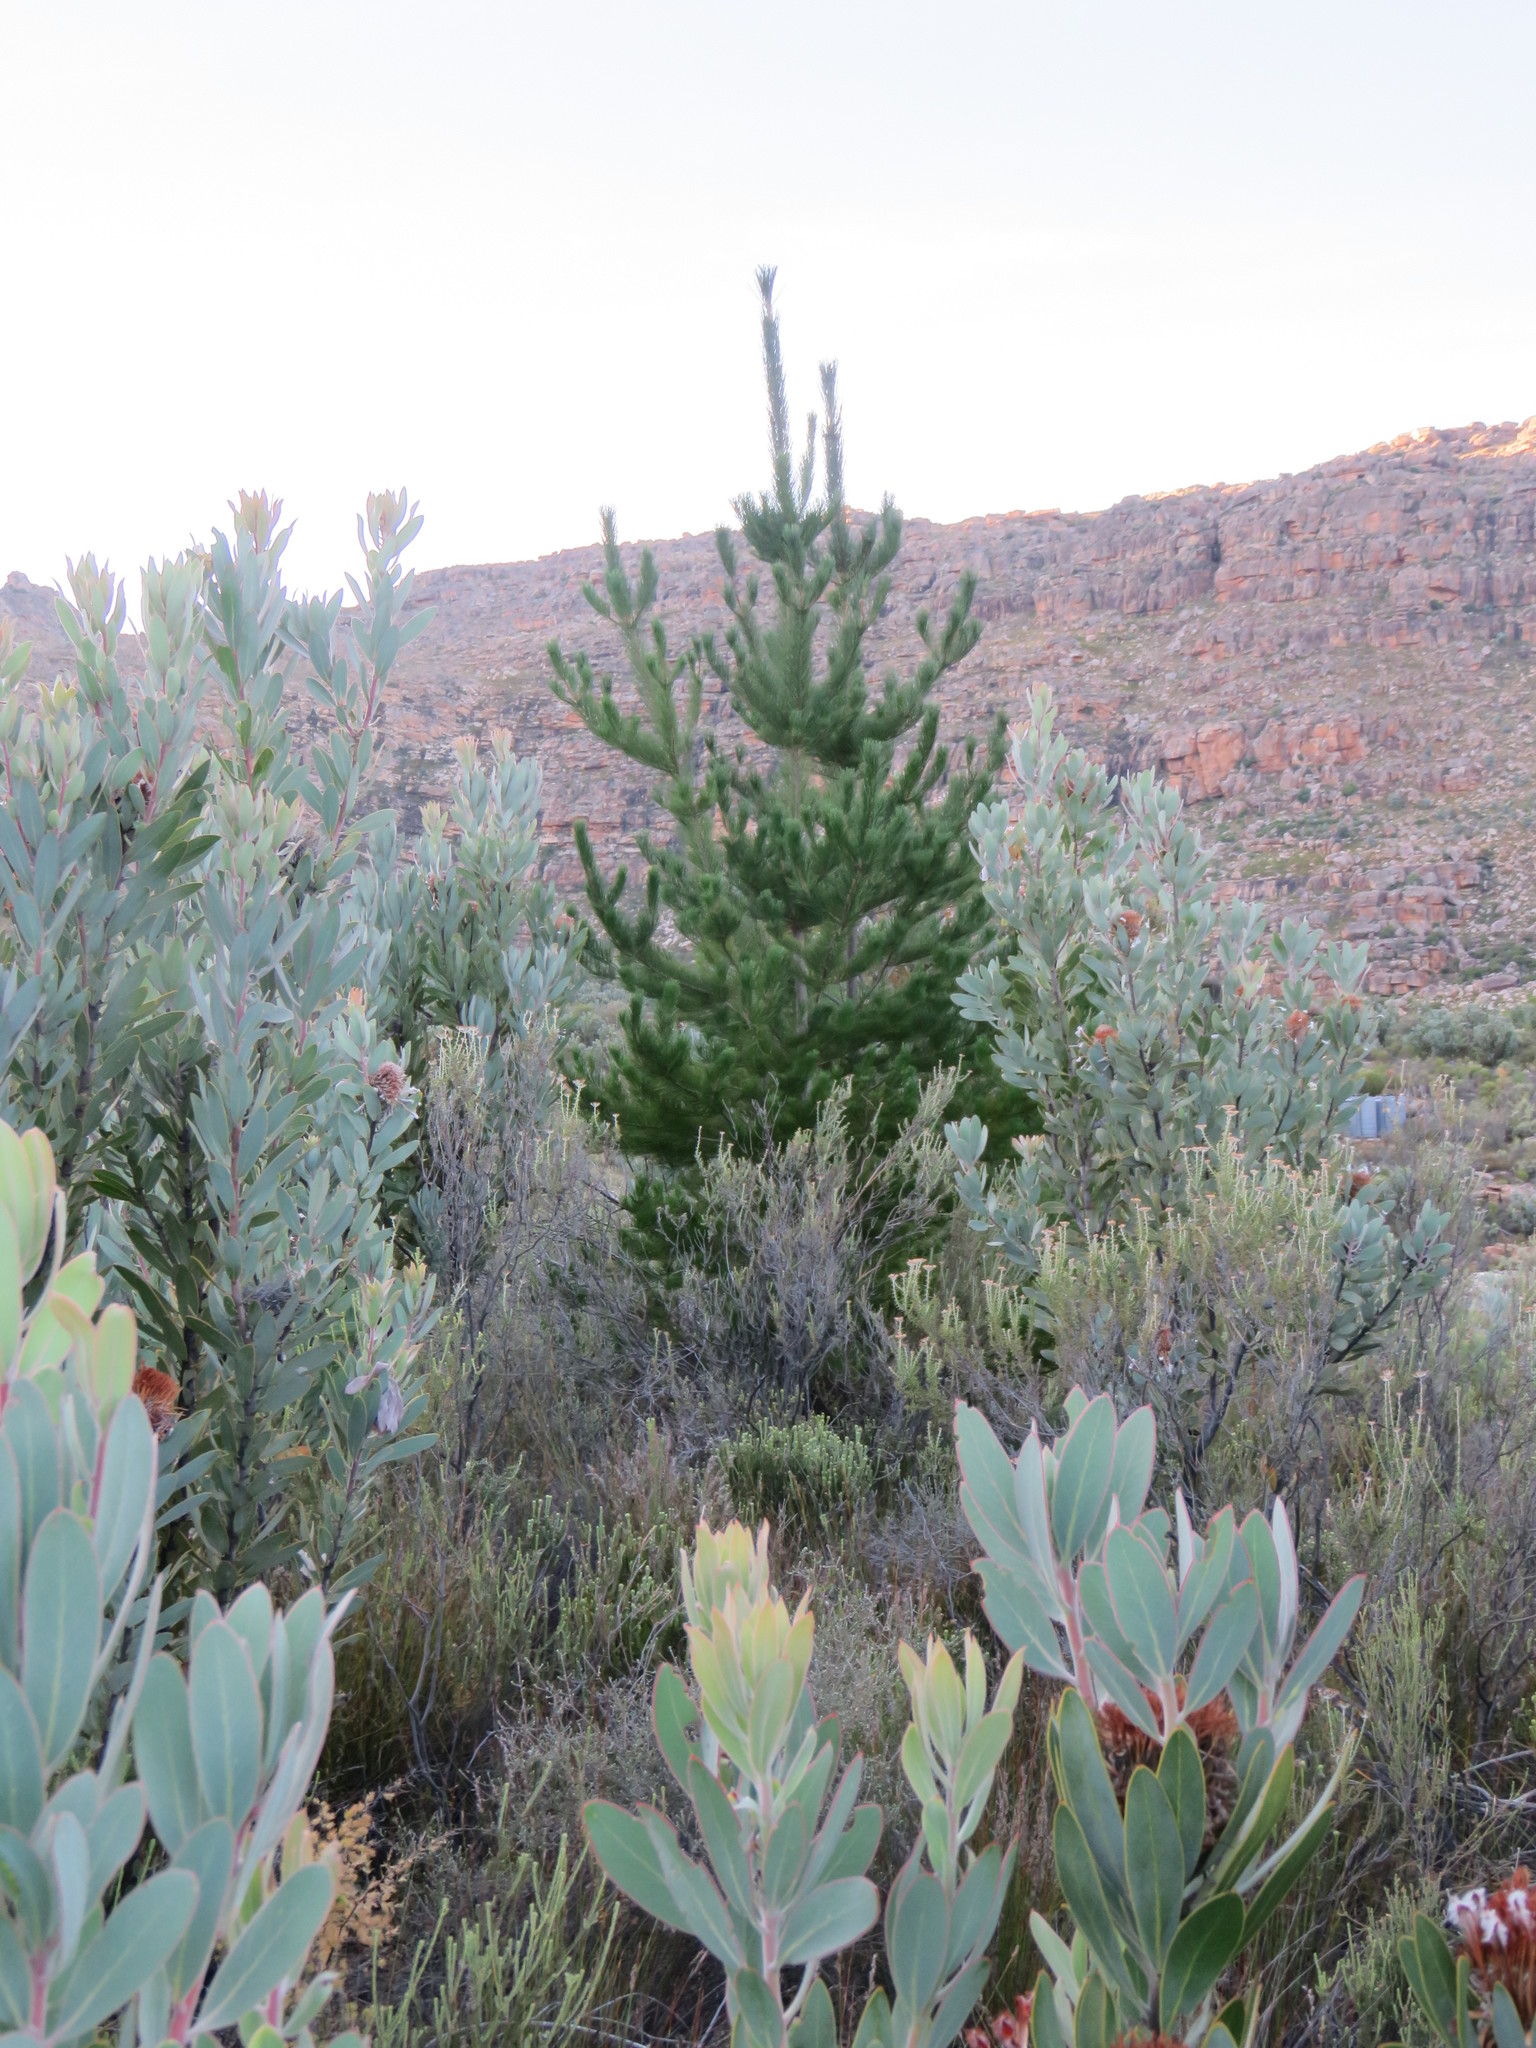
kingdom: Plantae
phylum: Tracheophyta
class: Pinopsida
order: Pinales
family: Pinaceae
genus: Pinus
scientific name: Pinus radiata
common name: Monterey pine
